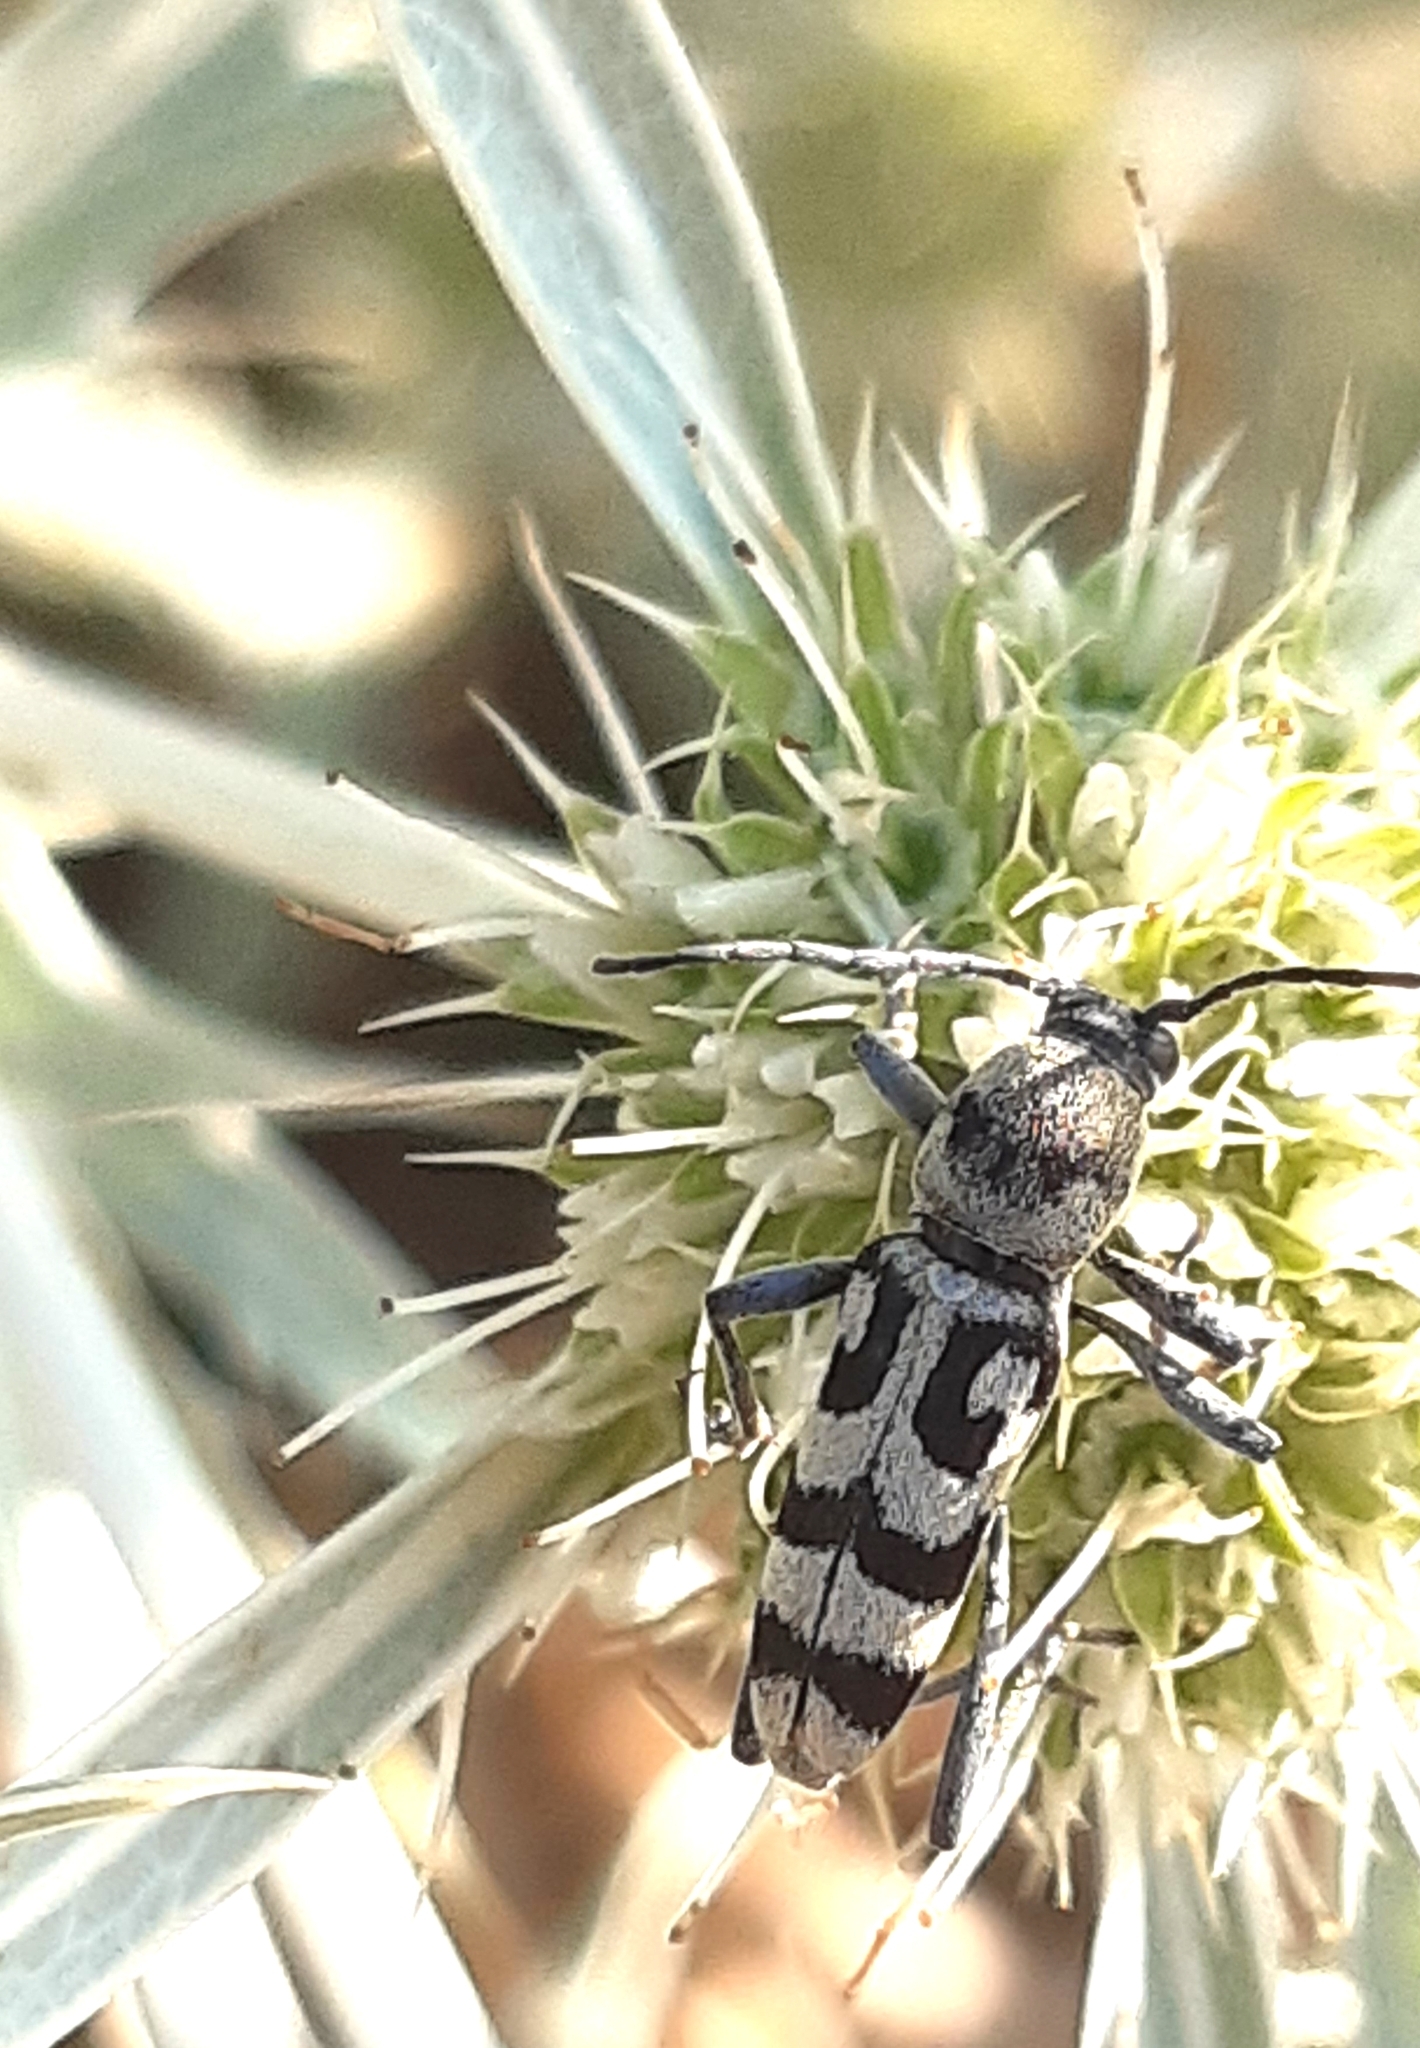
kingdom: Animalia
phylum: Arthropoda
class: Insecta
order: Coleoptera
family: Cerambycidae
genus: Chlorophorus
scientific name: Chlorophorus varius
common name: Grape wood borer
